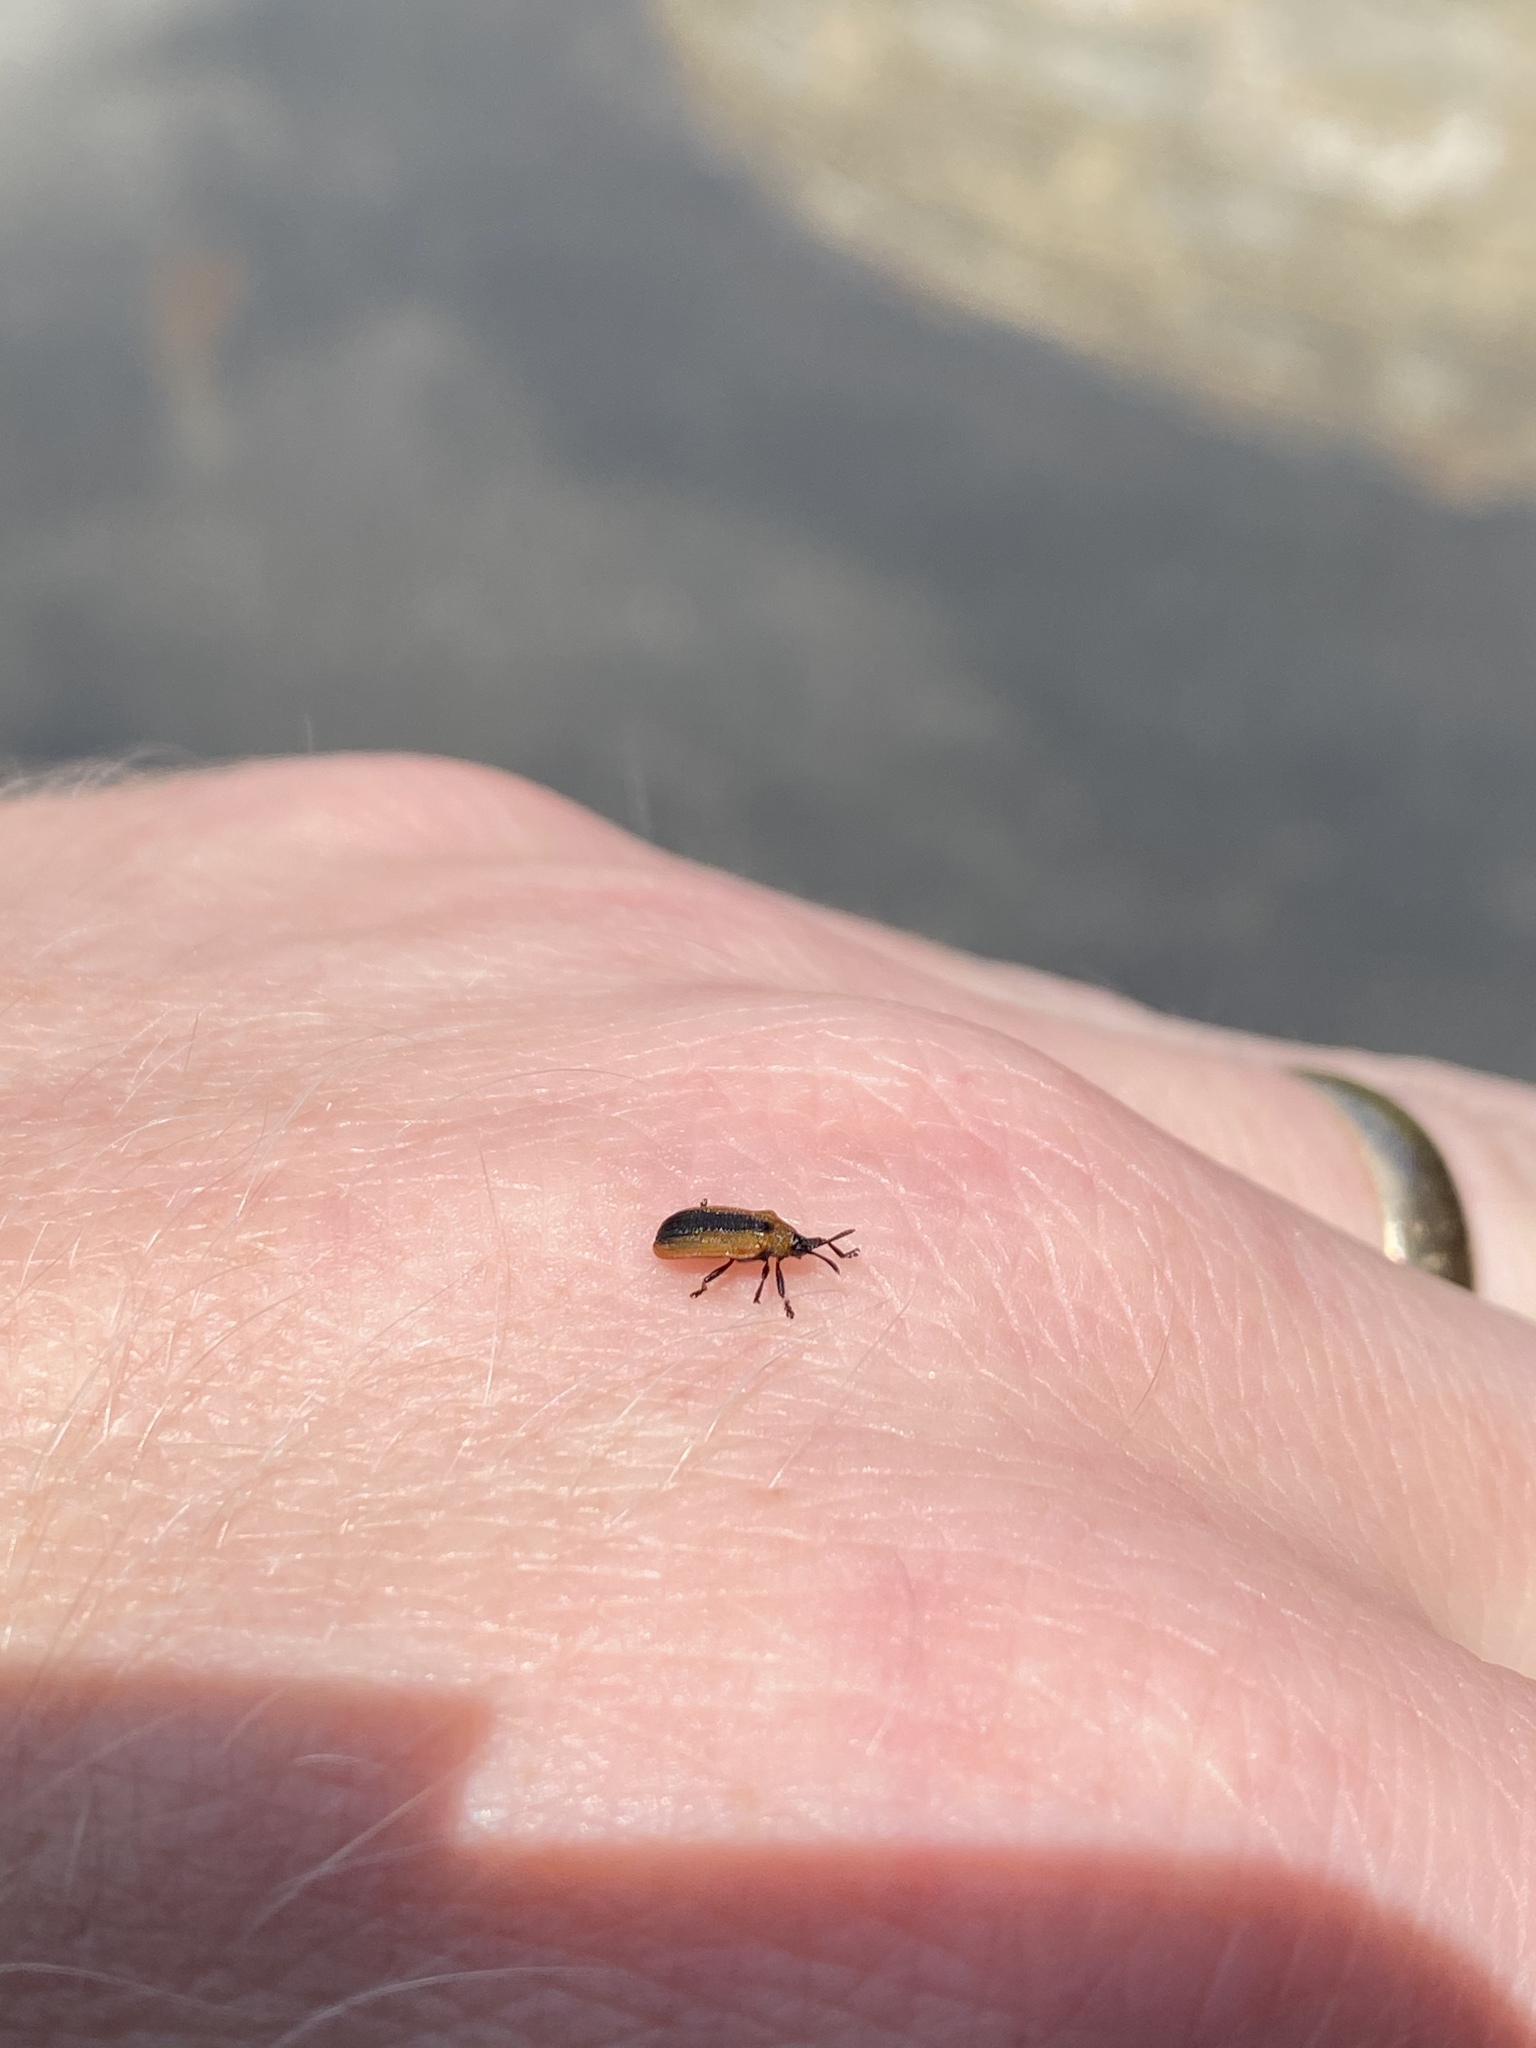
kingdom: Animalia
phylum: Arthropoda
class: Insecta
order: Coleoptera
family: Chrysomelidae
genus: Odontota
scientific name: Odontota dorsalis
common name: Locust leaf-miner beetle
